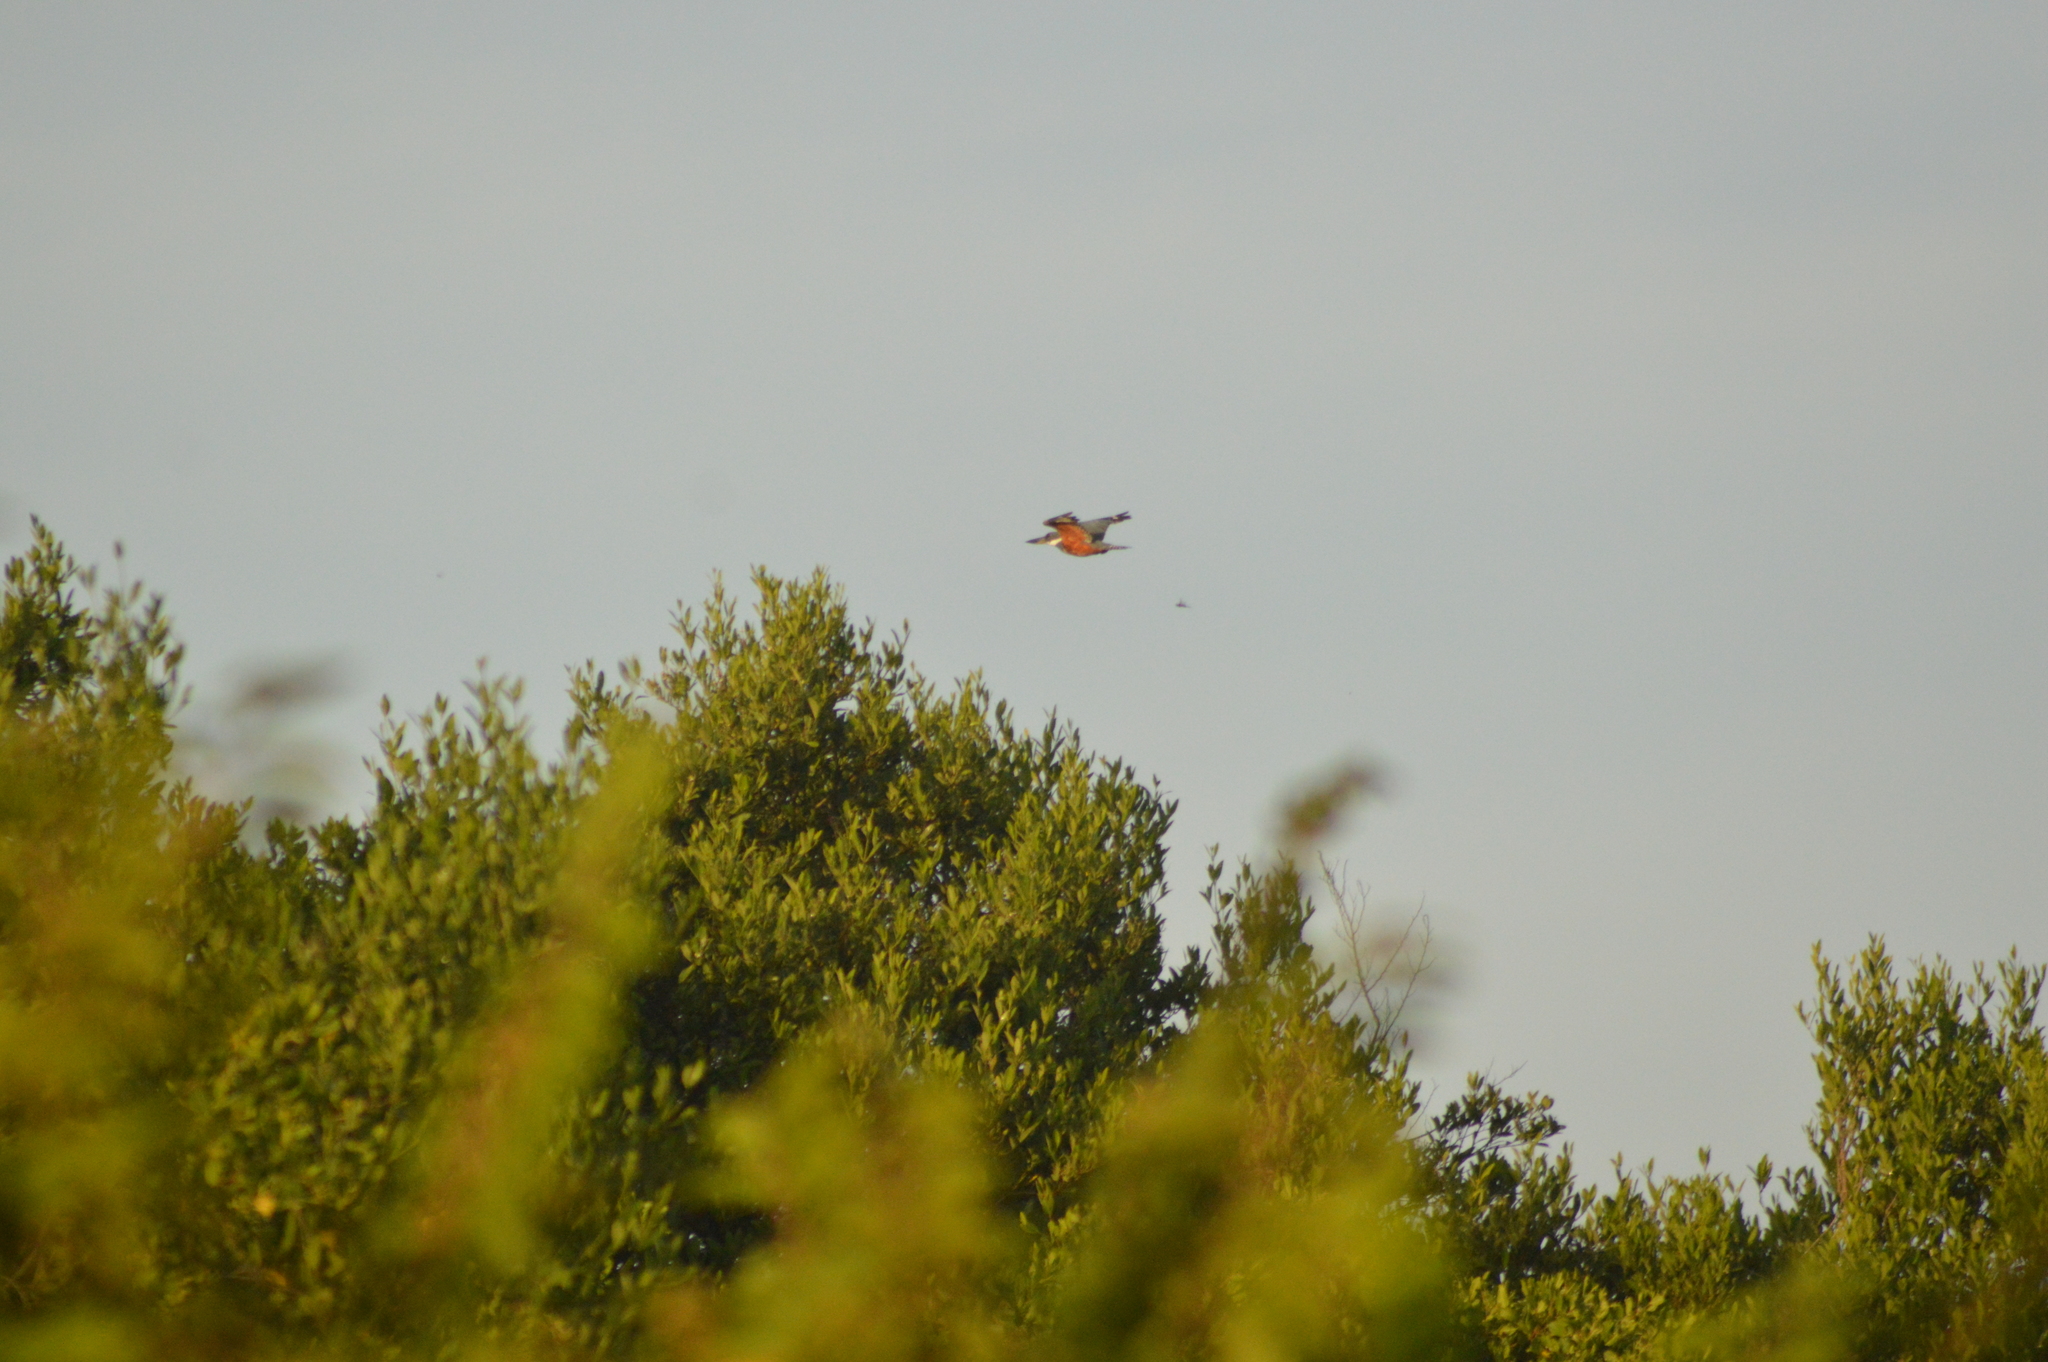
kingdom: Animalia
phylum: Chordata
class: Aves
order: Coraciiformes
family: Alcedinidae
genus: Megaceryle
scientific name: Megaceryle torquata
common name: Ringed kingfisher
